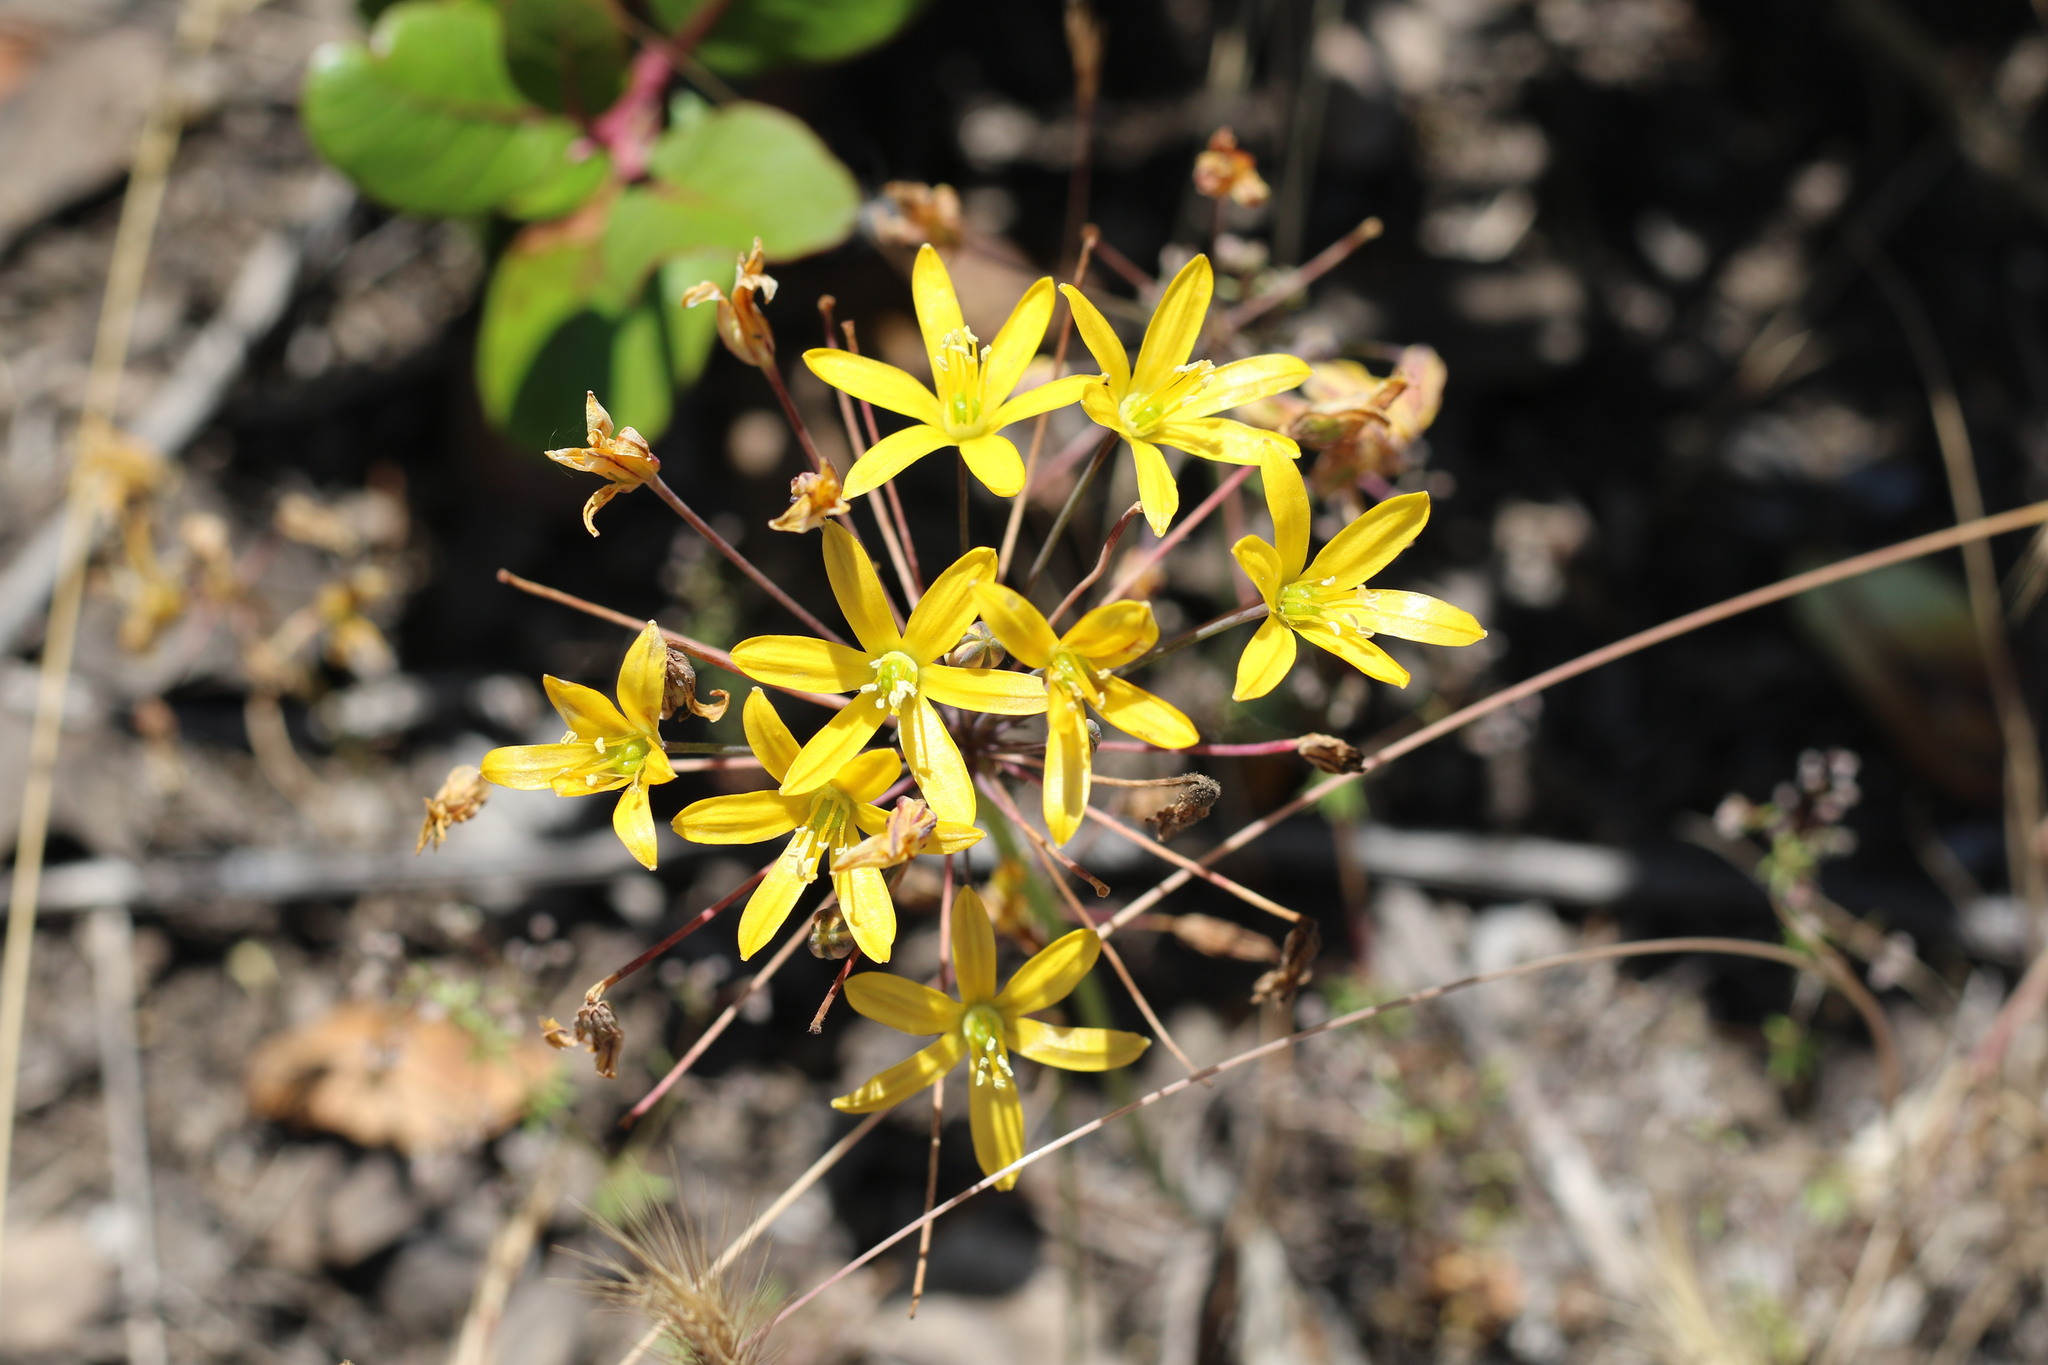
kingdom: Plantae
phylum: Tracheophyta
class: Liliopsida
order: Asparagales
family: Asparagaceae
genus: Bloomeria
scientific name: Bloomeria crocea
